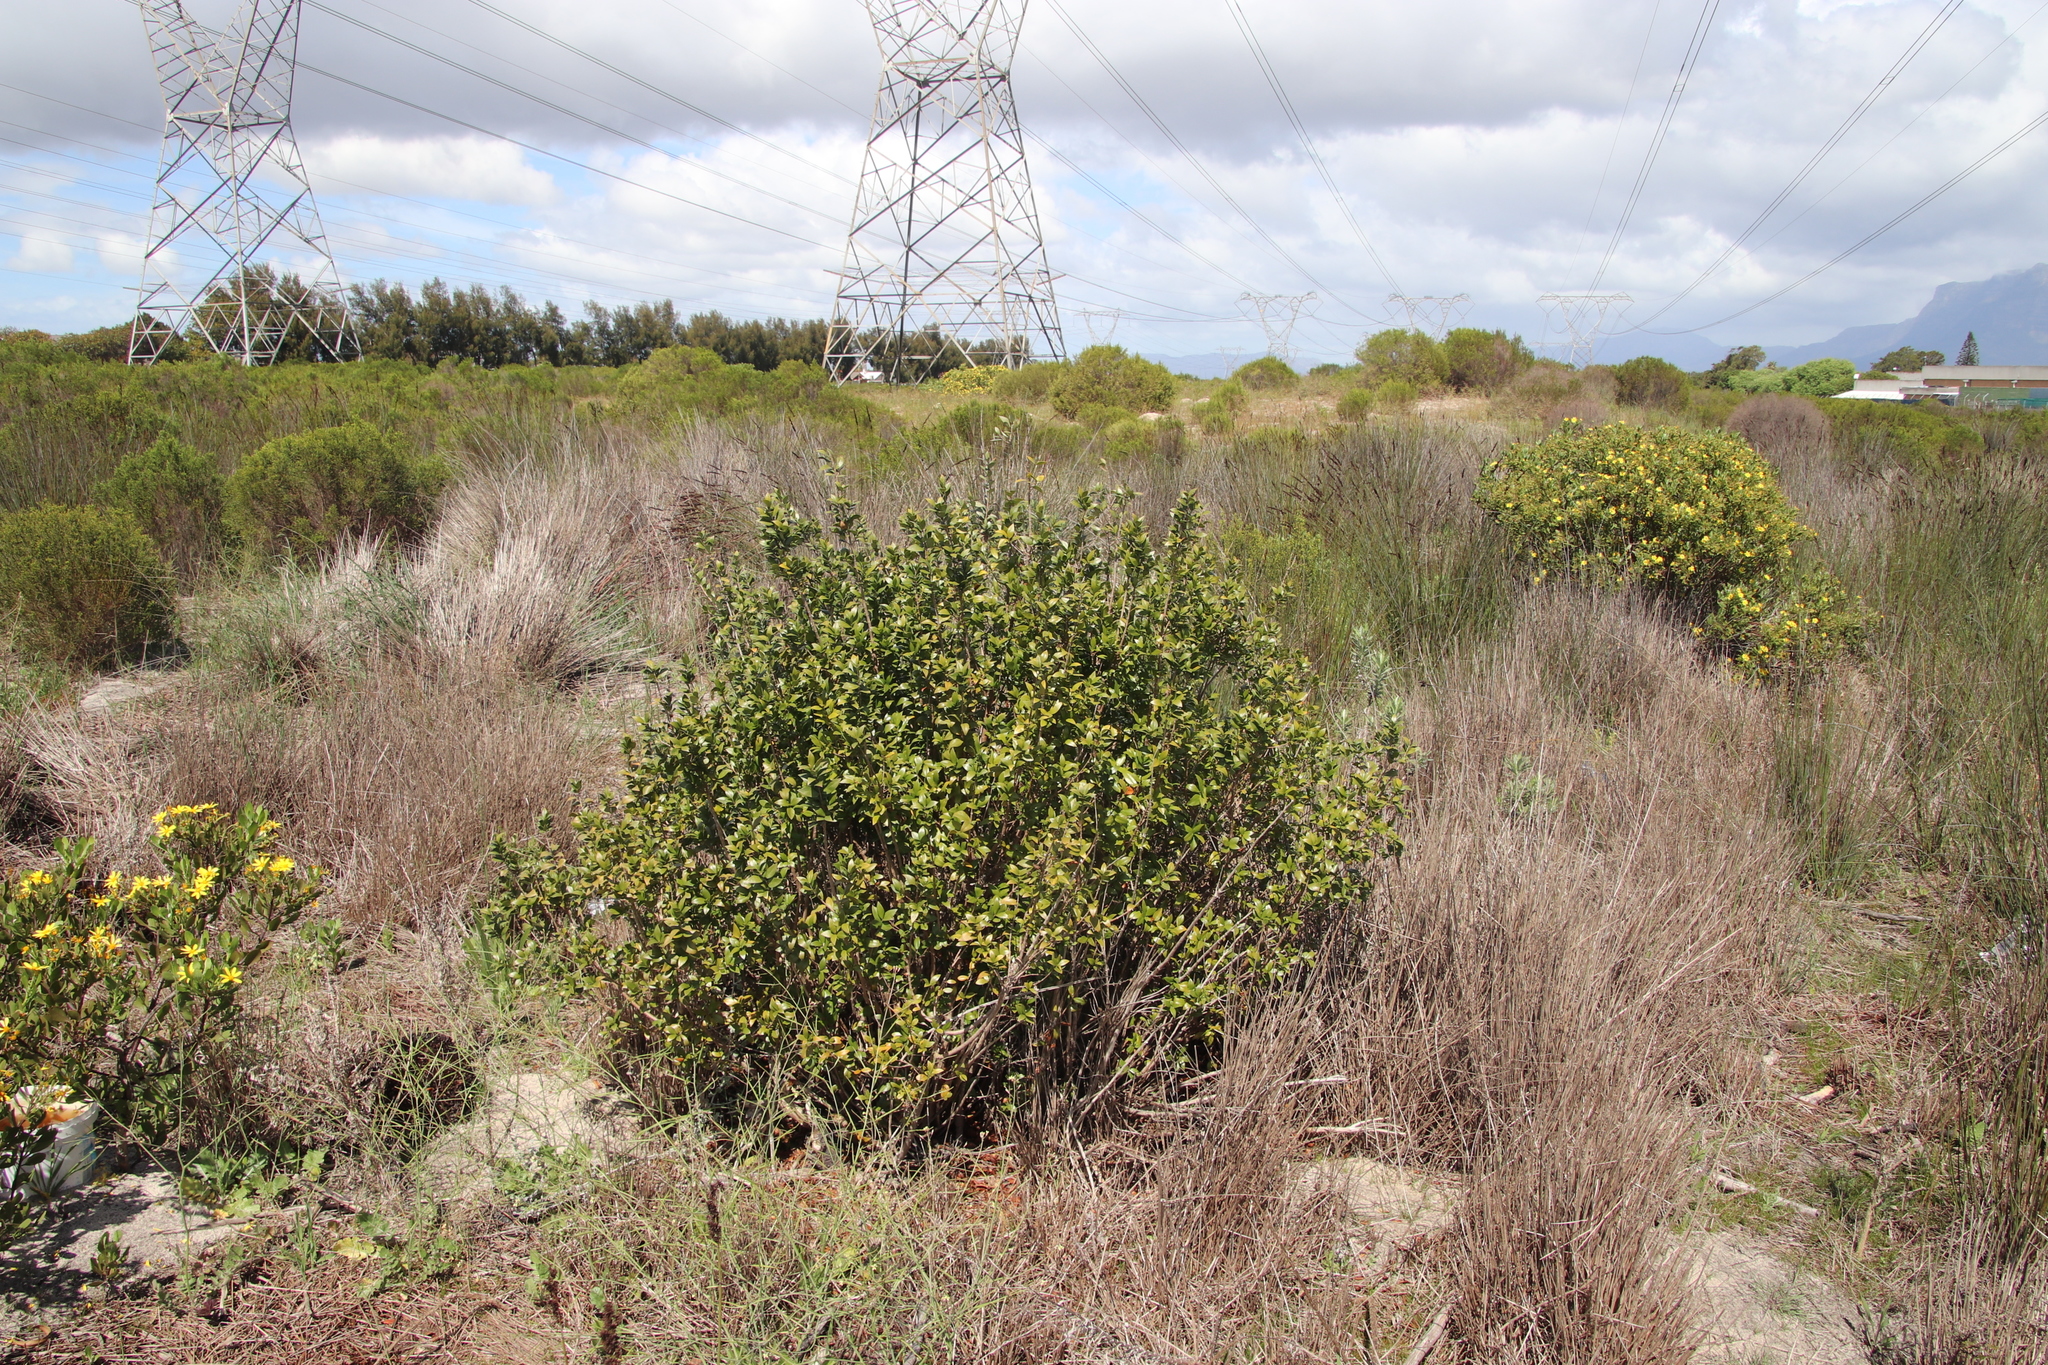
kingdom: Plantae
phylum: Tracheophyta
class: Magnoliopsida
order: Myrtales
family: Myrtaceae
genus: Myrtus
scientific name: Myrtus communis
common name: Myrtle
